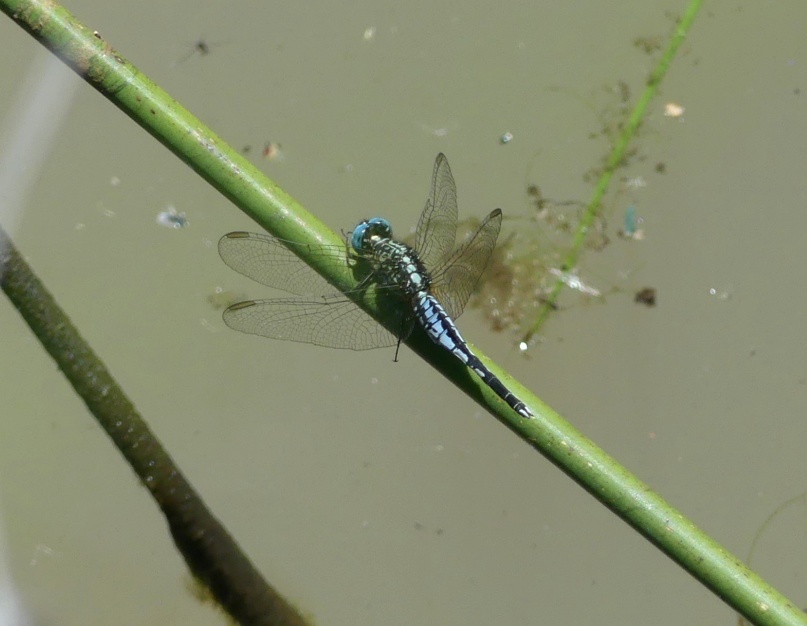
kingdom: Animalia
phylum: Arthropoda
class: Insecta
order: Odonata
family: Libellulidae
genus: Acisoma
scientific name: Acisoma inflatum
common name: Stout pintail
